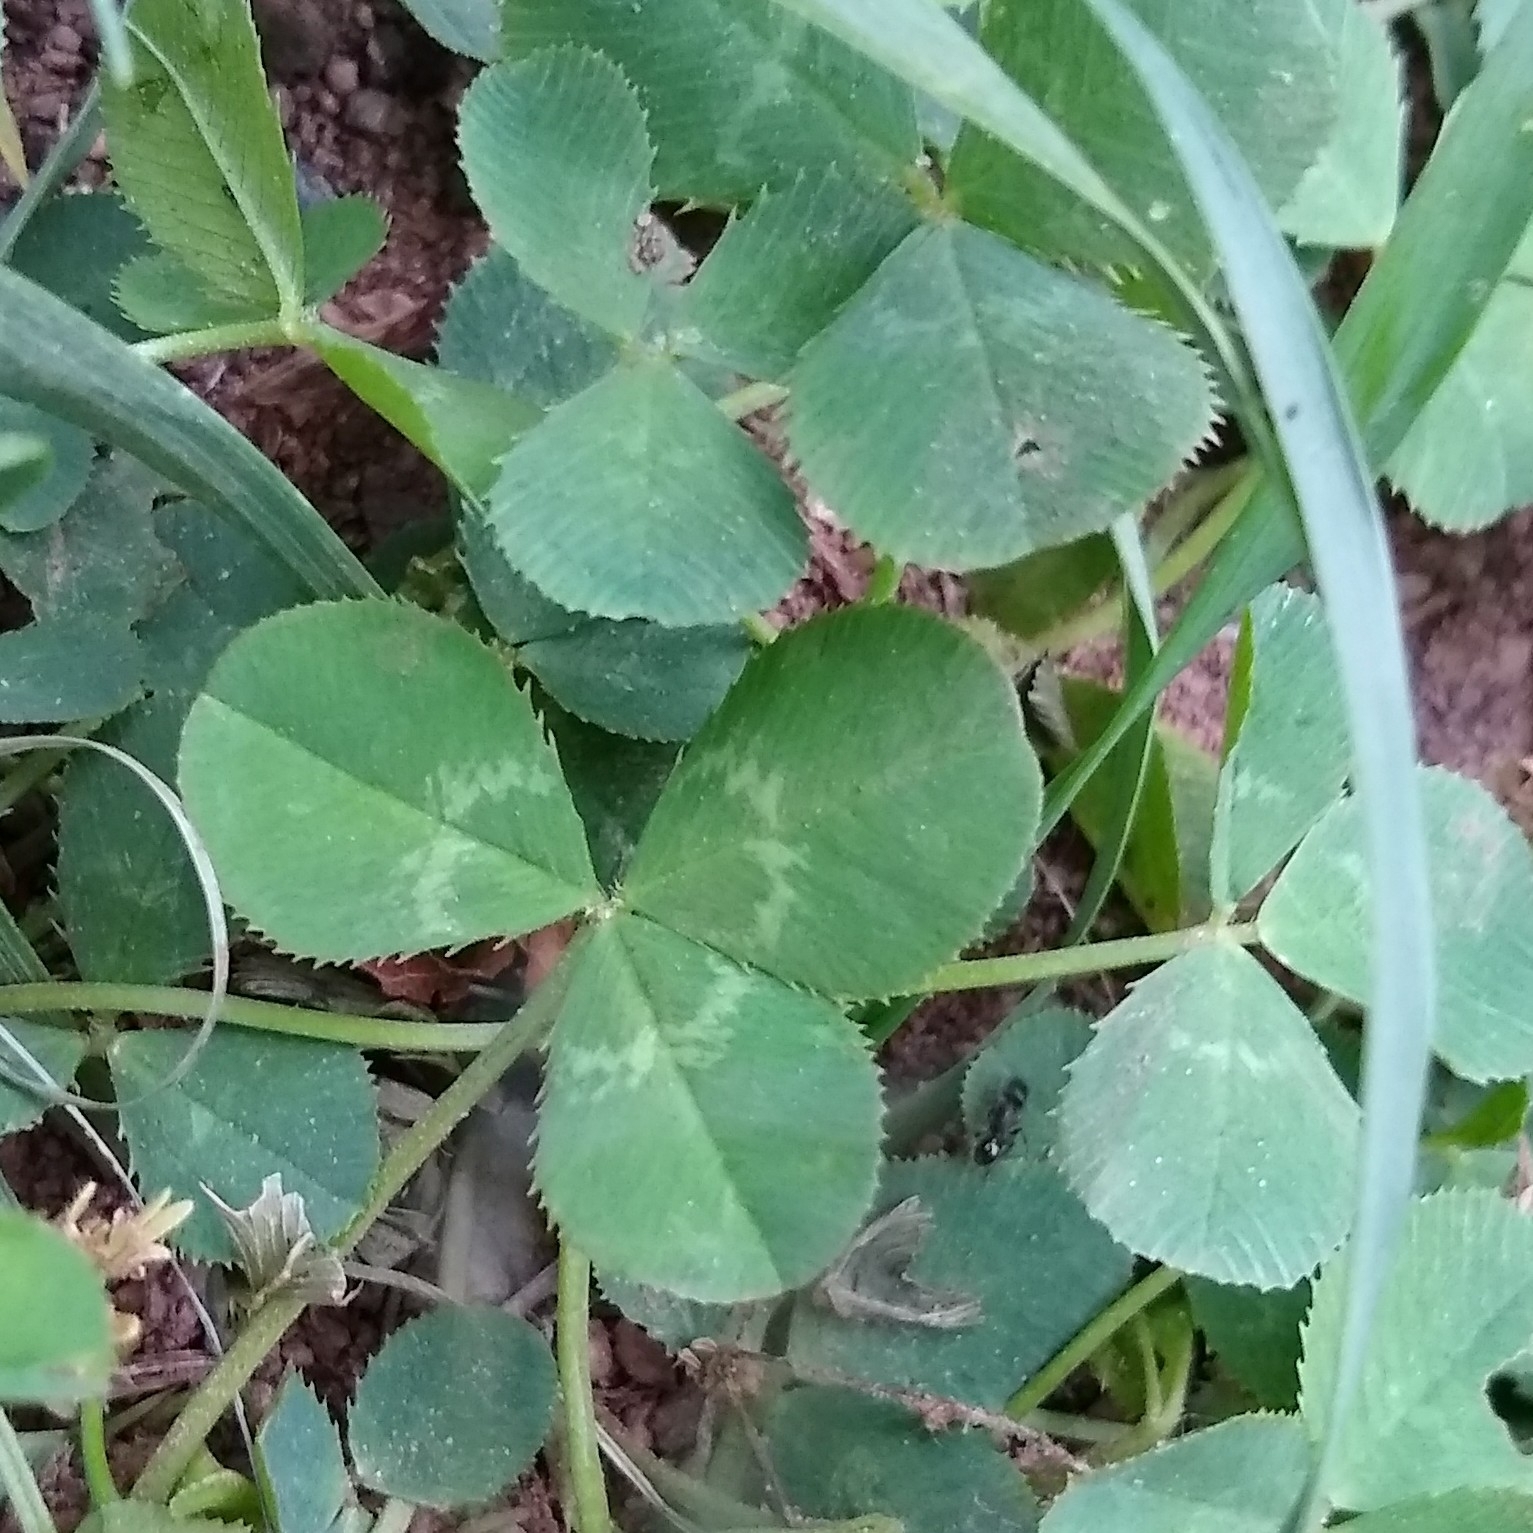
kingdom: Plantae
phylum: Tracheophyta
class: Magnoliopsida
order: Fabales
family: Fabaceae
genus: Trifolium
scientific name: Trifolium repens
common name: White clover
